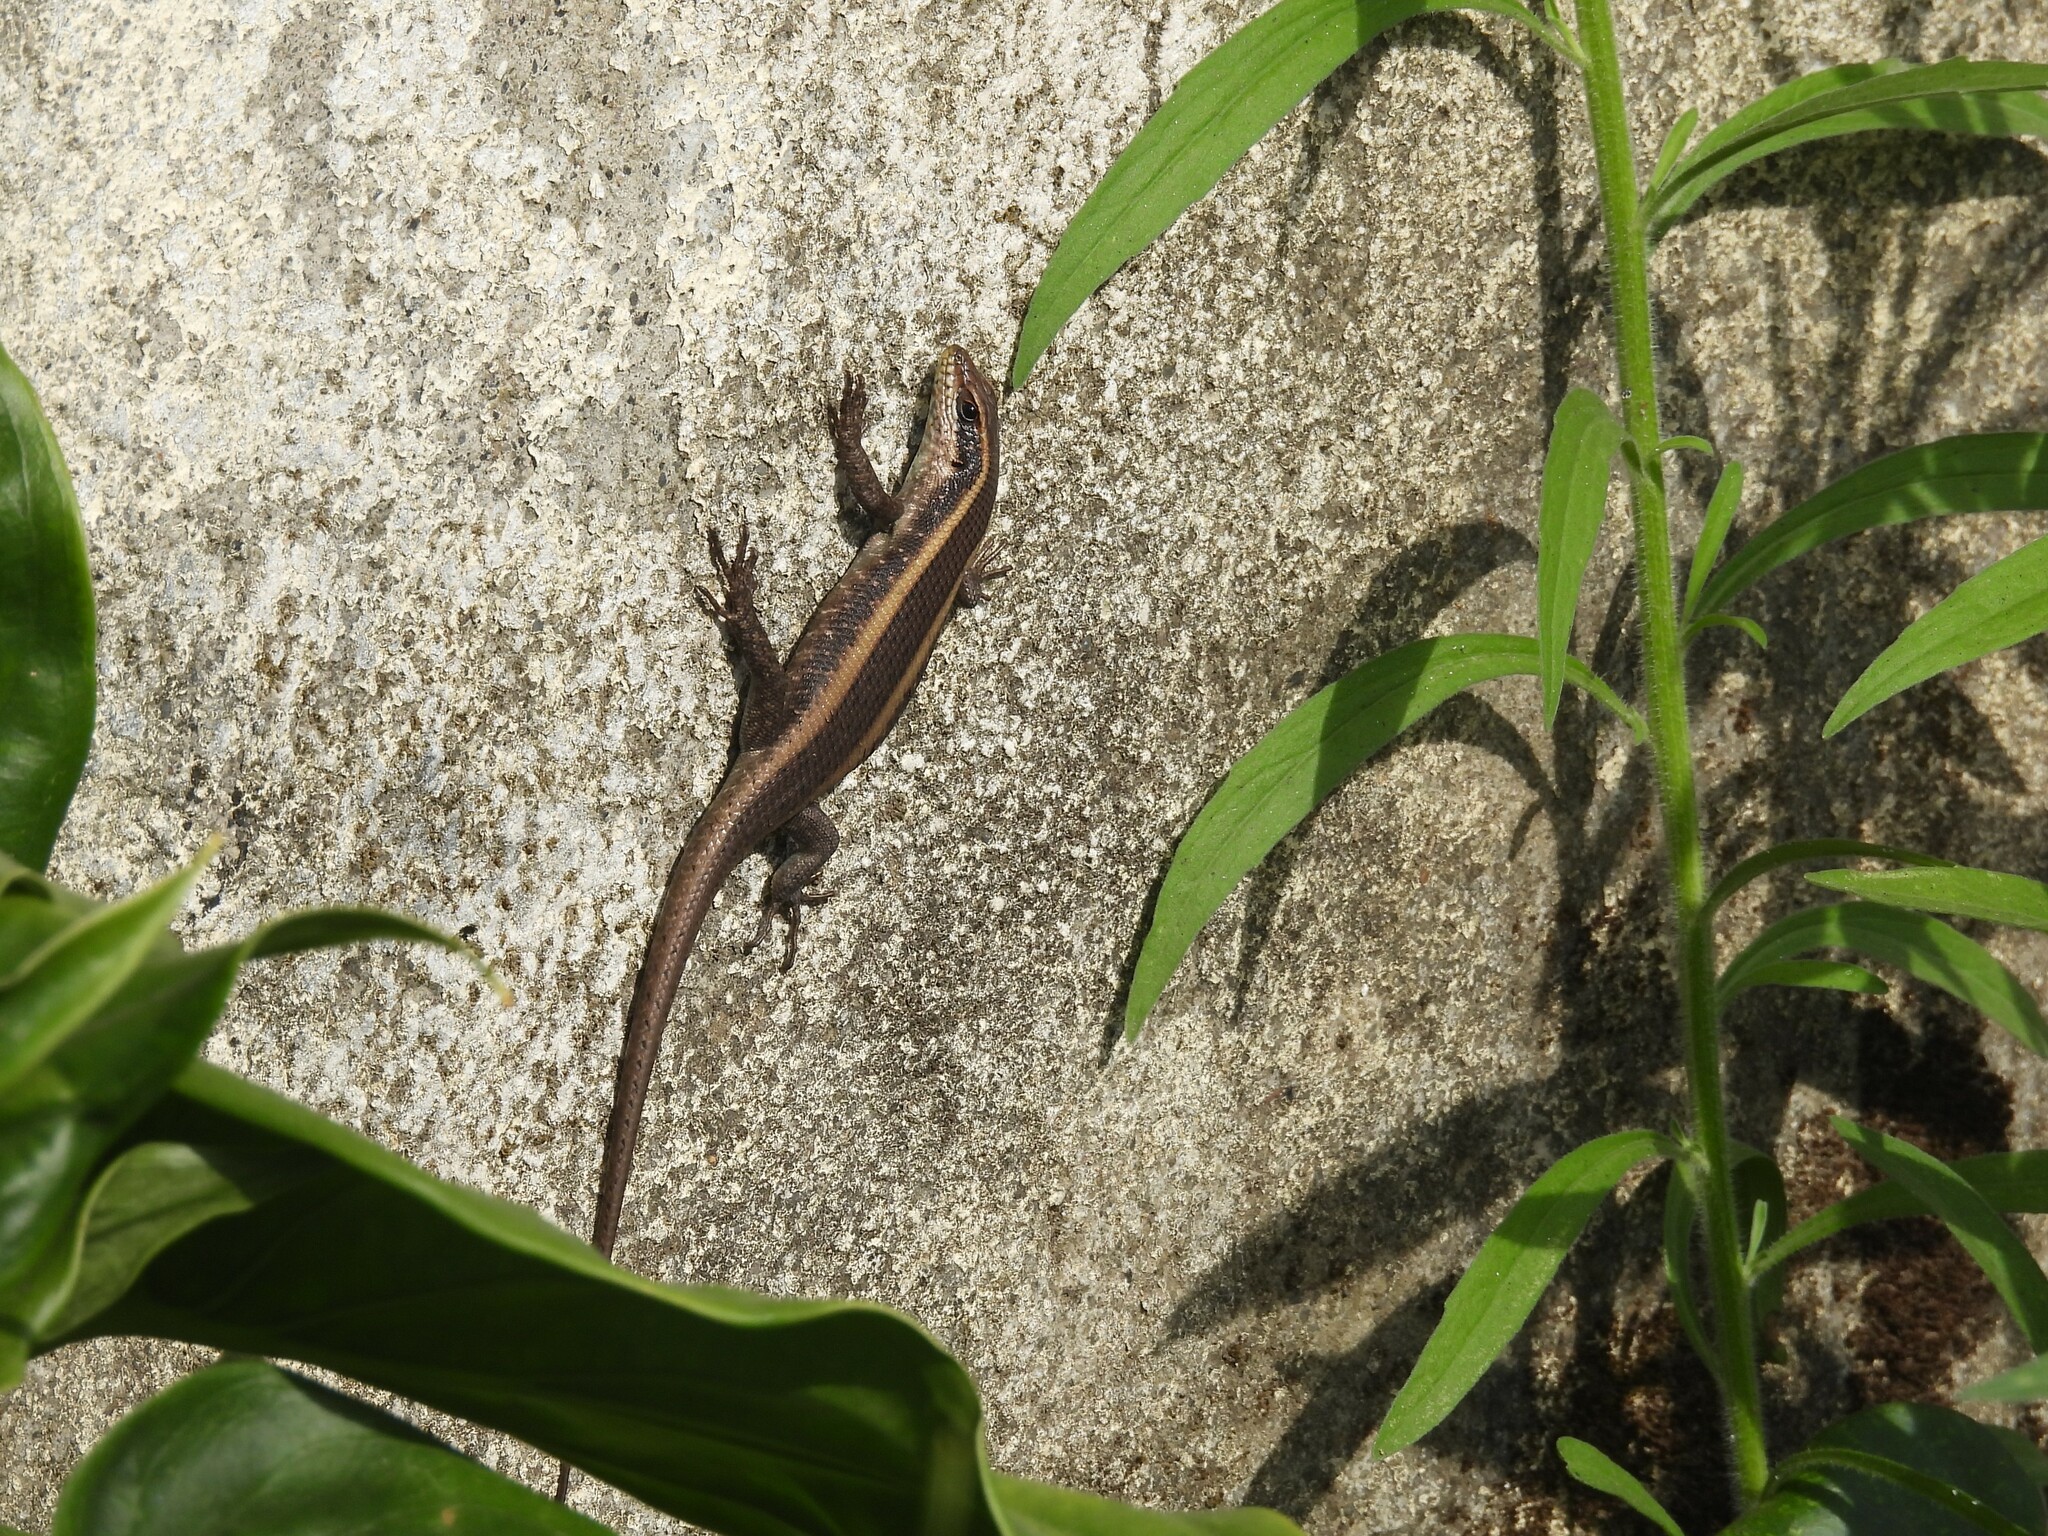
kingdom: Animalia
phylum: Chordata
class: Squamata
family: Scincidae
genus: Trachylepis
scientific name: Trachylepis striata
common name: African striped mabuya
